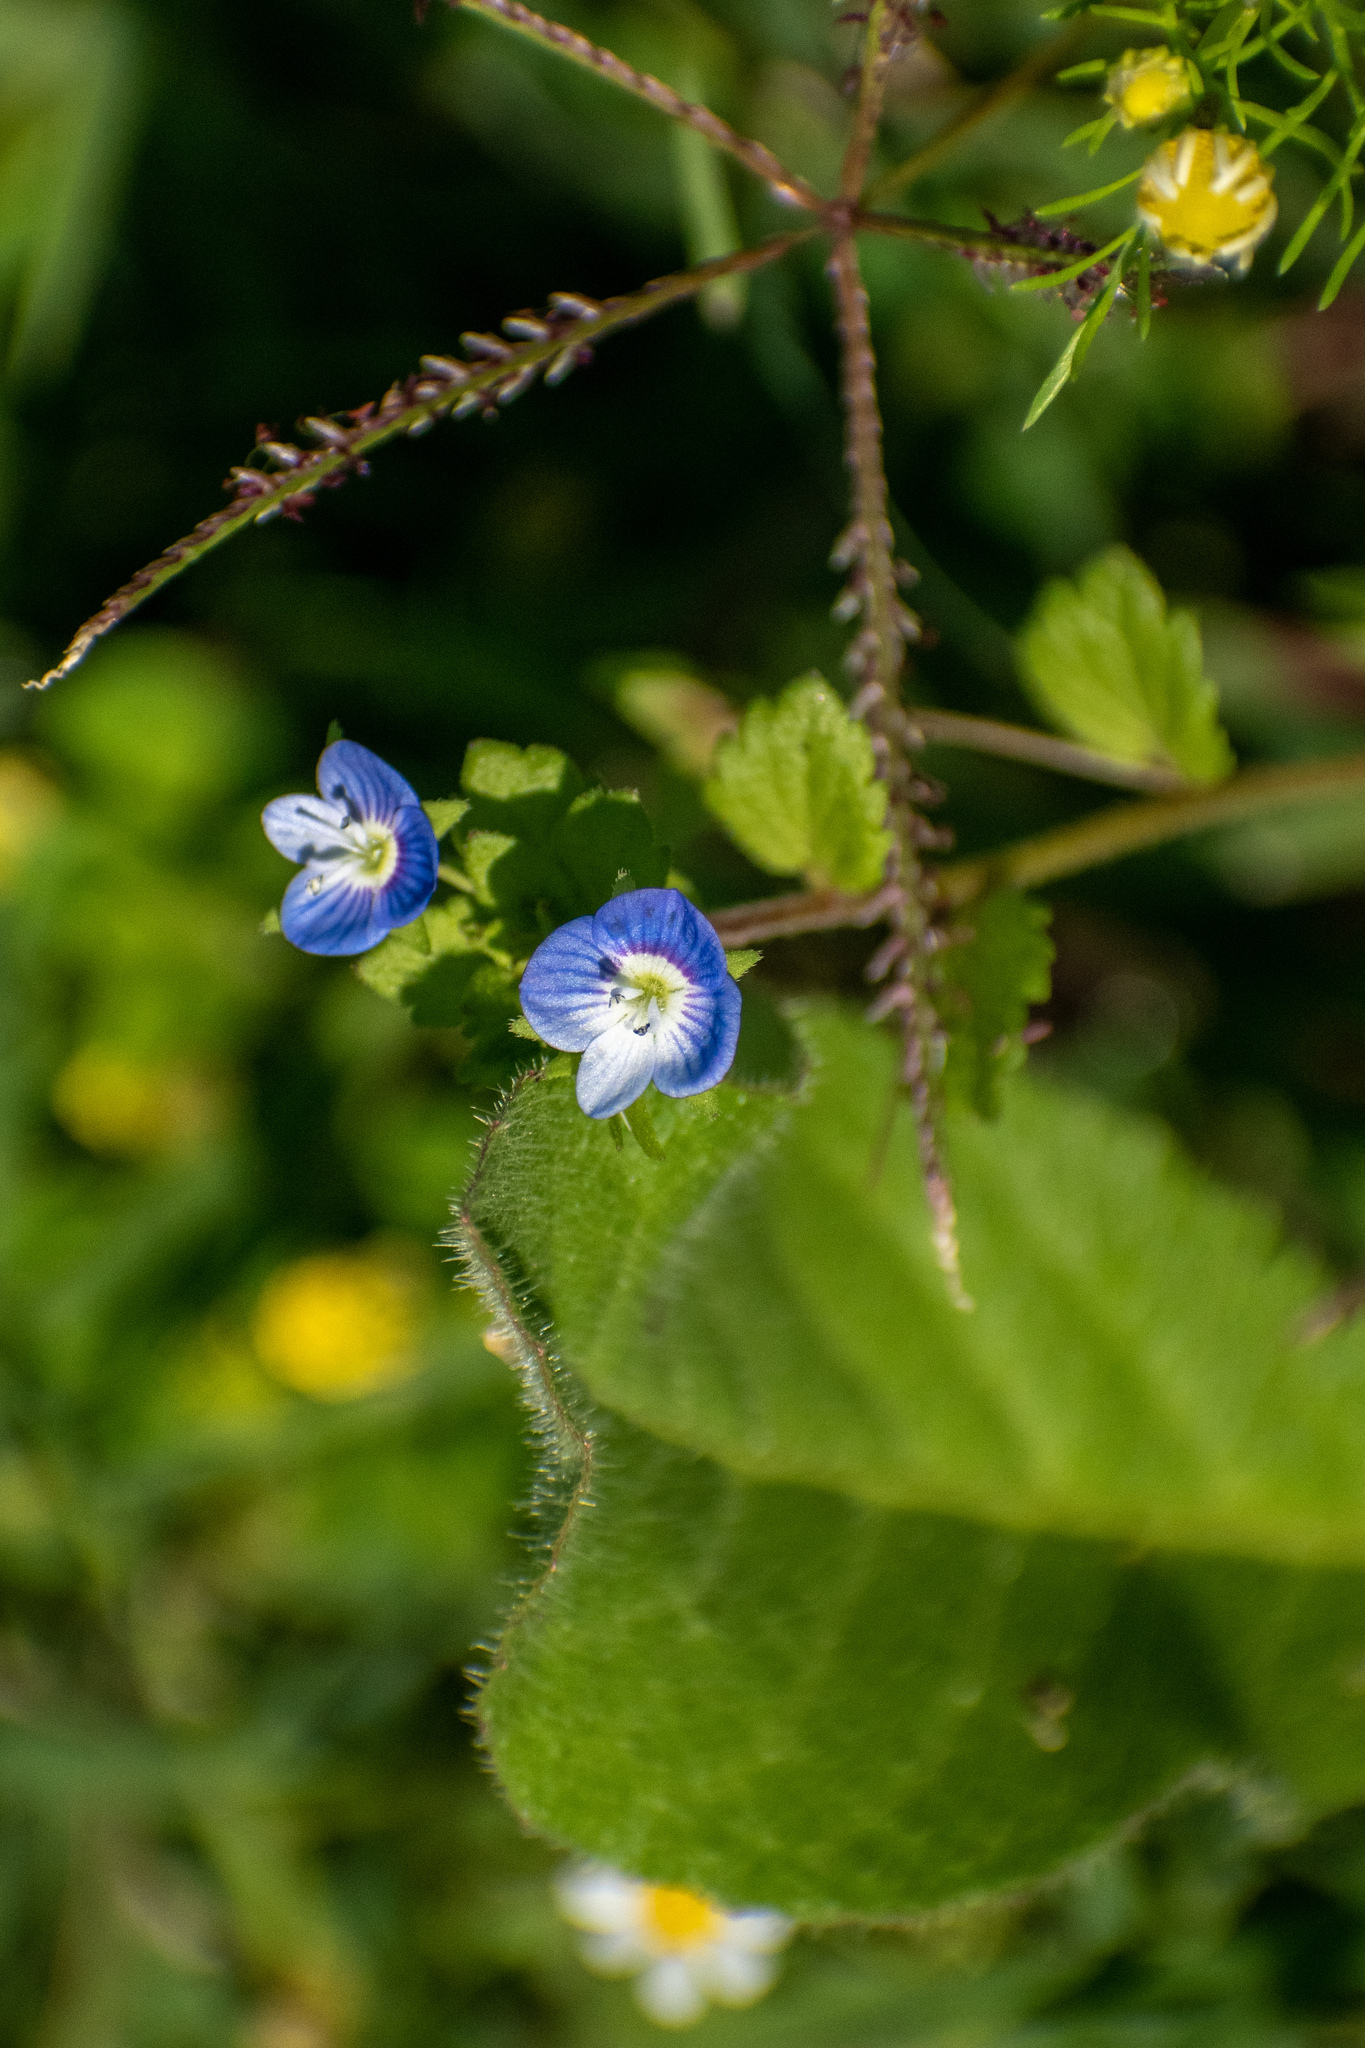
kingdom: Plantae
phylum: Tracheophyta
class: Magnoliopsida
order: Lamiales
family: Plantaginaceae
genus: Veronica
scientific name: Veronica persica
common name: Common field-speedwell
